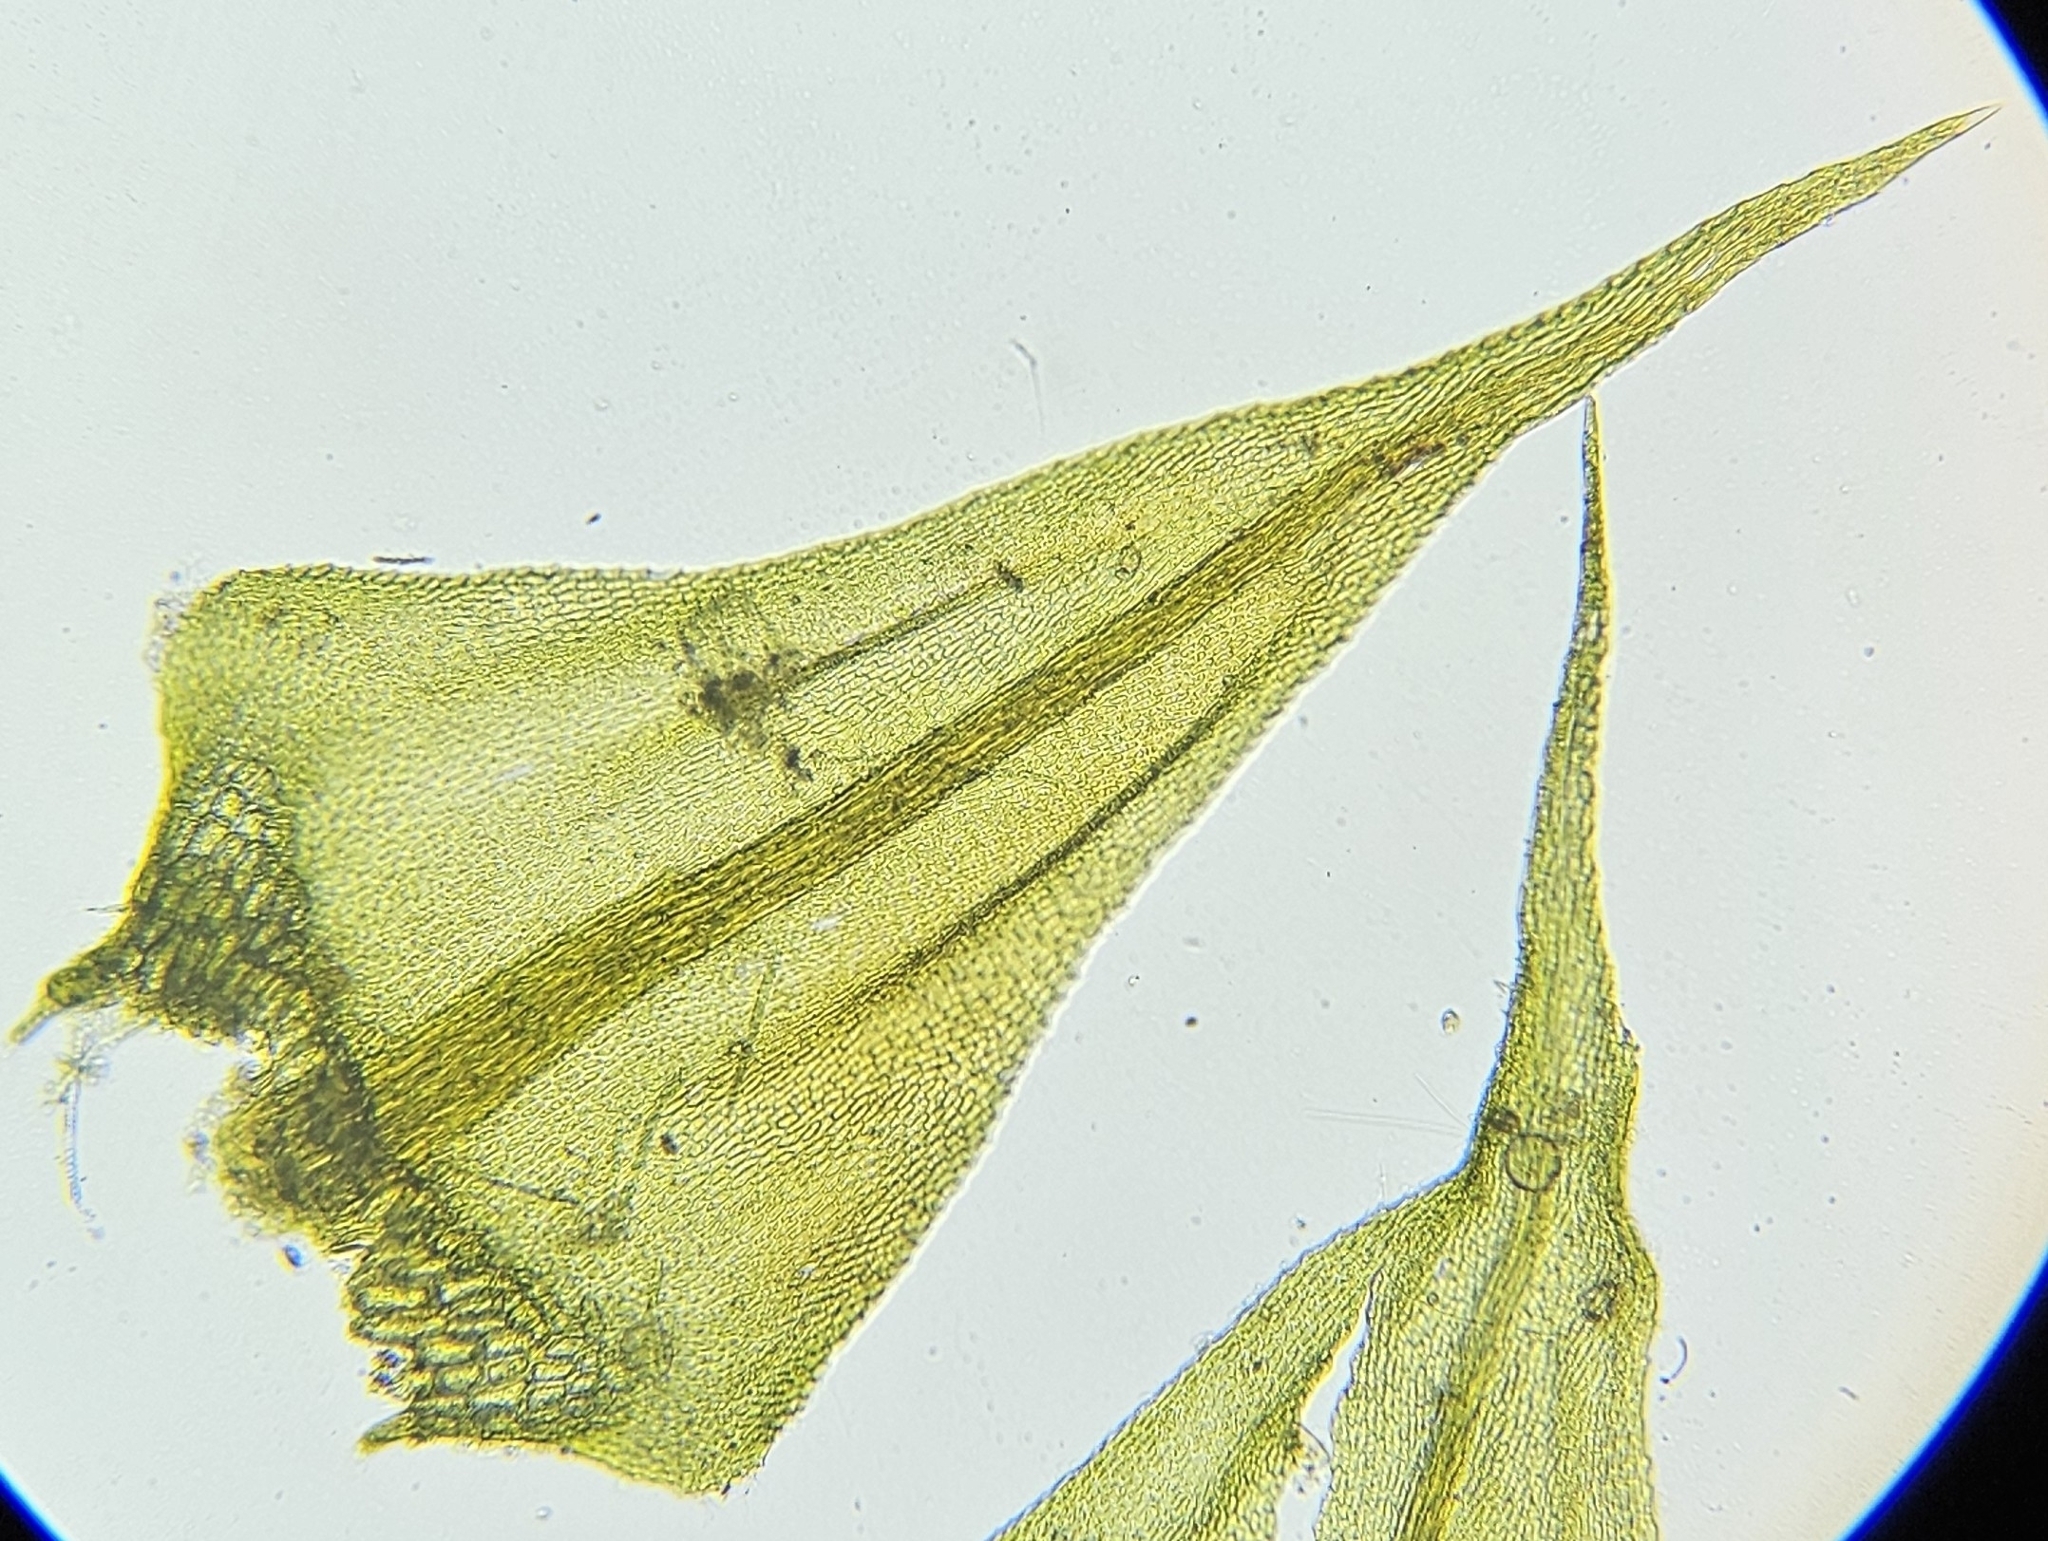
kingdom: Plantae
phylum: Bryophyta
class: Bryopsida
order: Hypnales
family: Amblystegiaceae
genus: Cratoneuron
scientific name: Cratoneuron filicinum
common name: Fern-leaved hook moss
